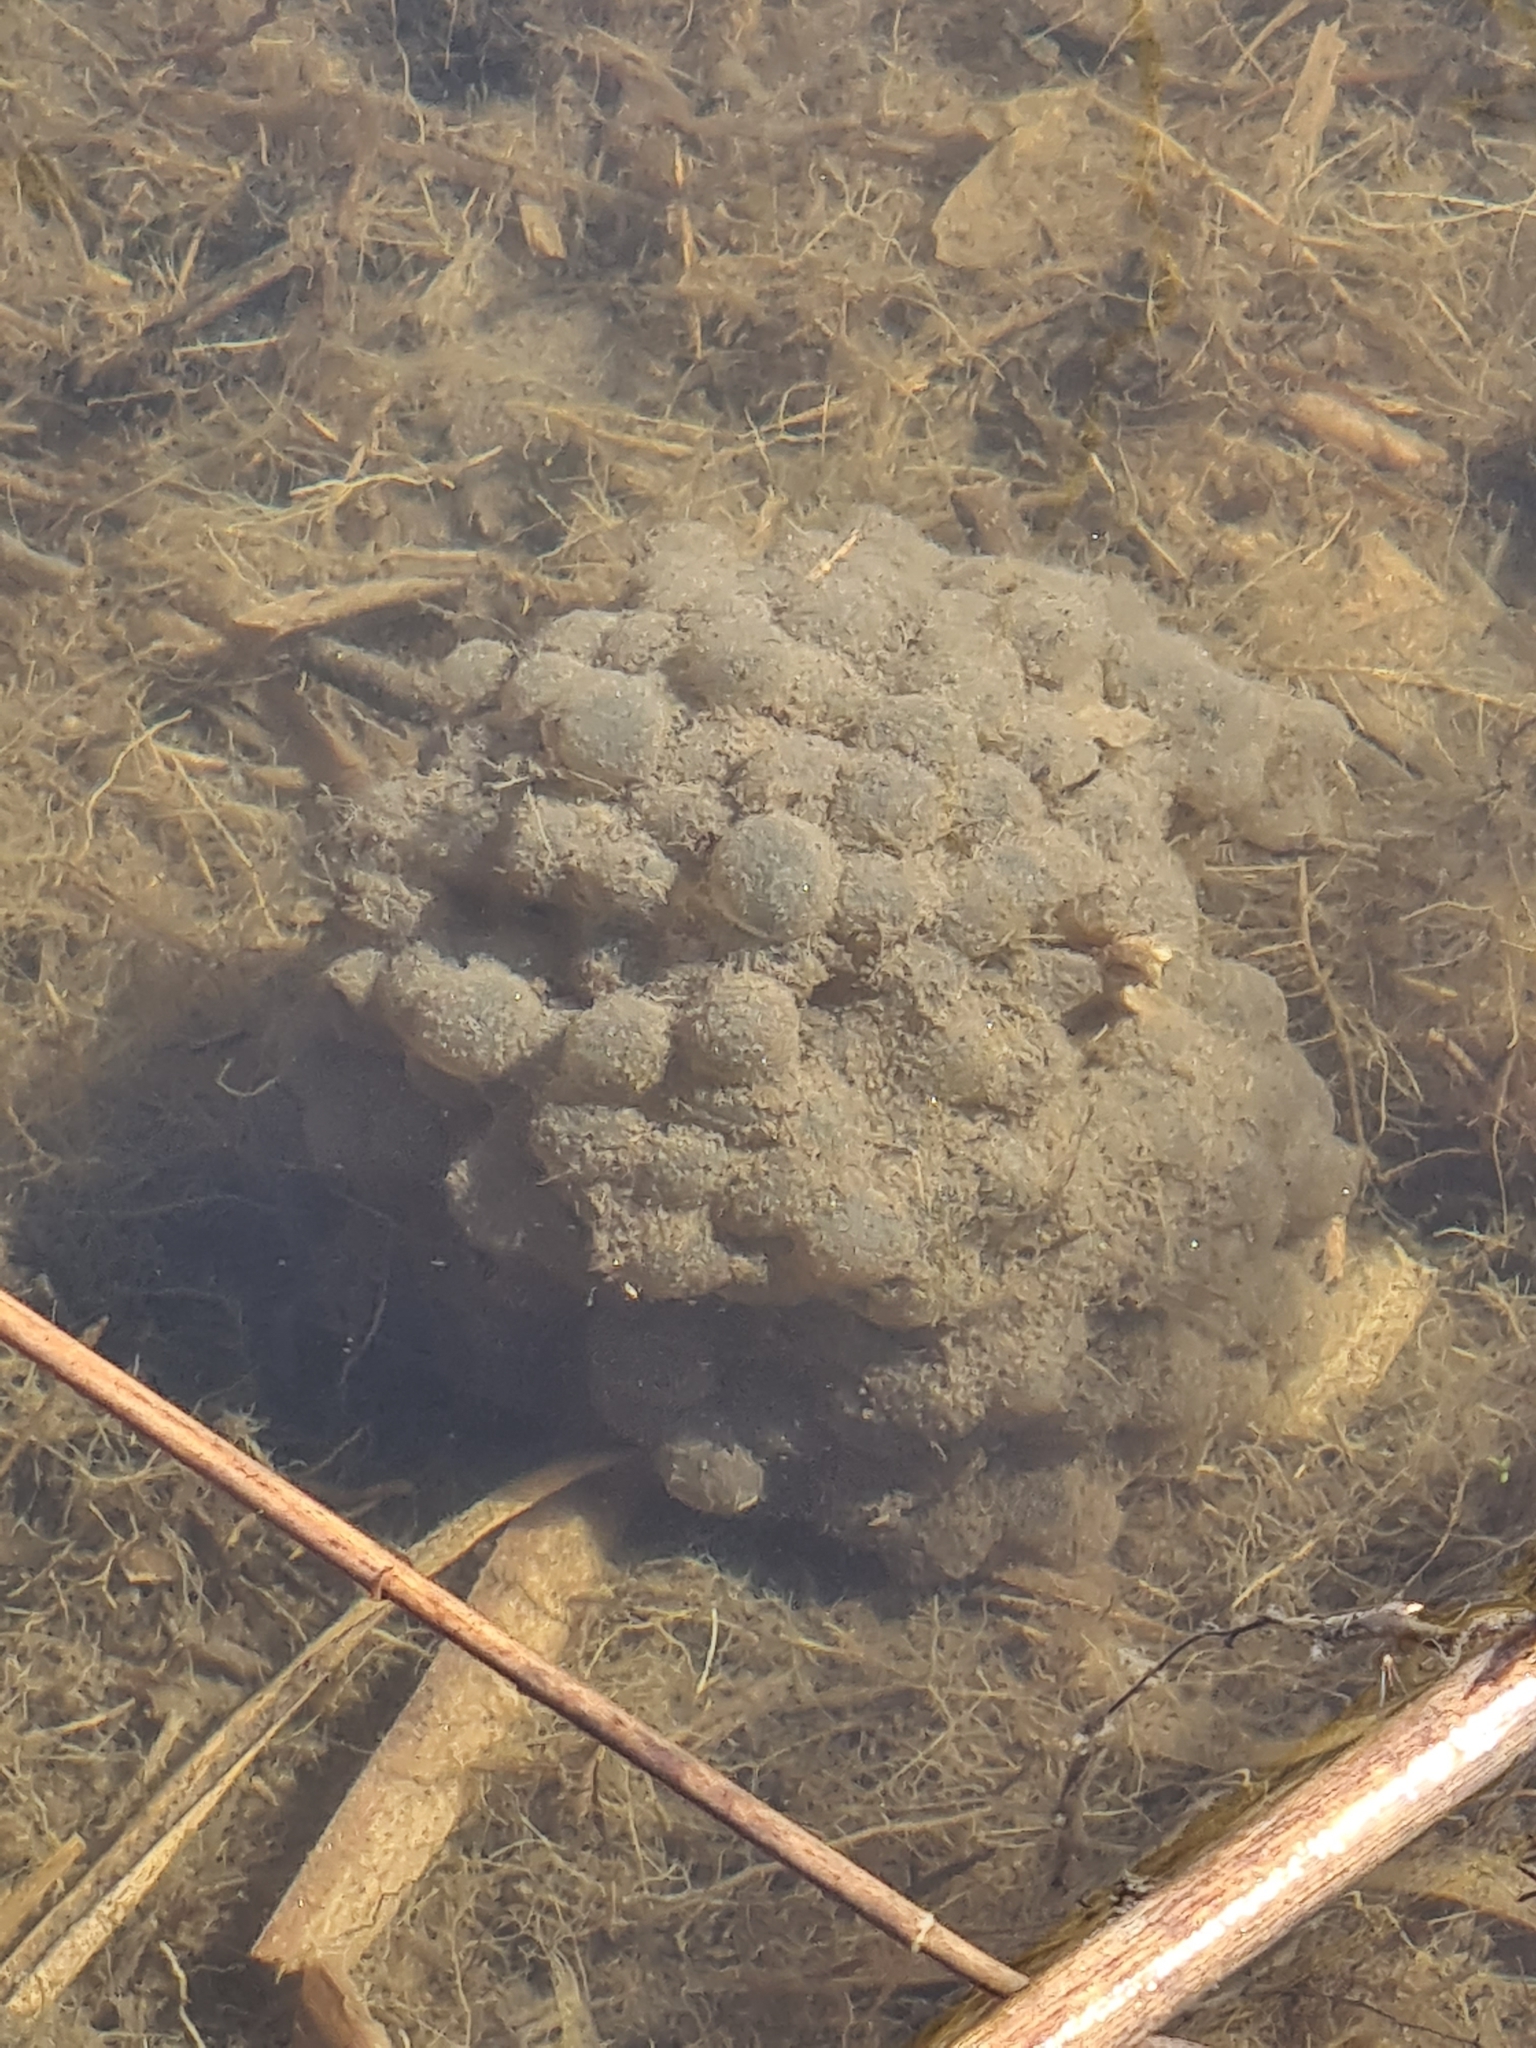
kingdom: Animalia
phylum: Chordata
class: Amphibia
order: Anura
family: Ranidae
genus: Rana
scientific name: Rana dalmatina
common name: Agile frog
